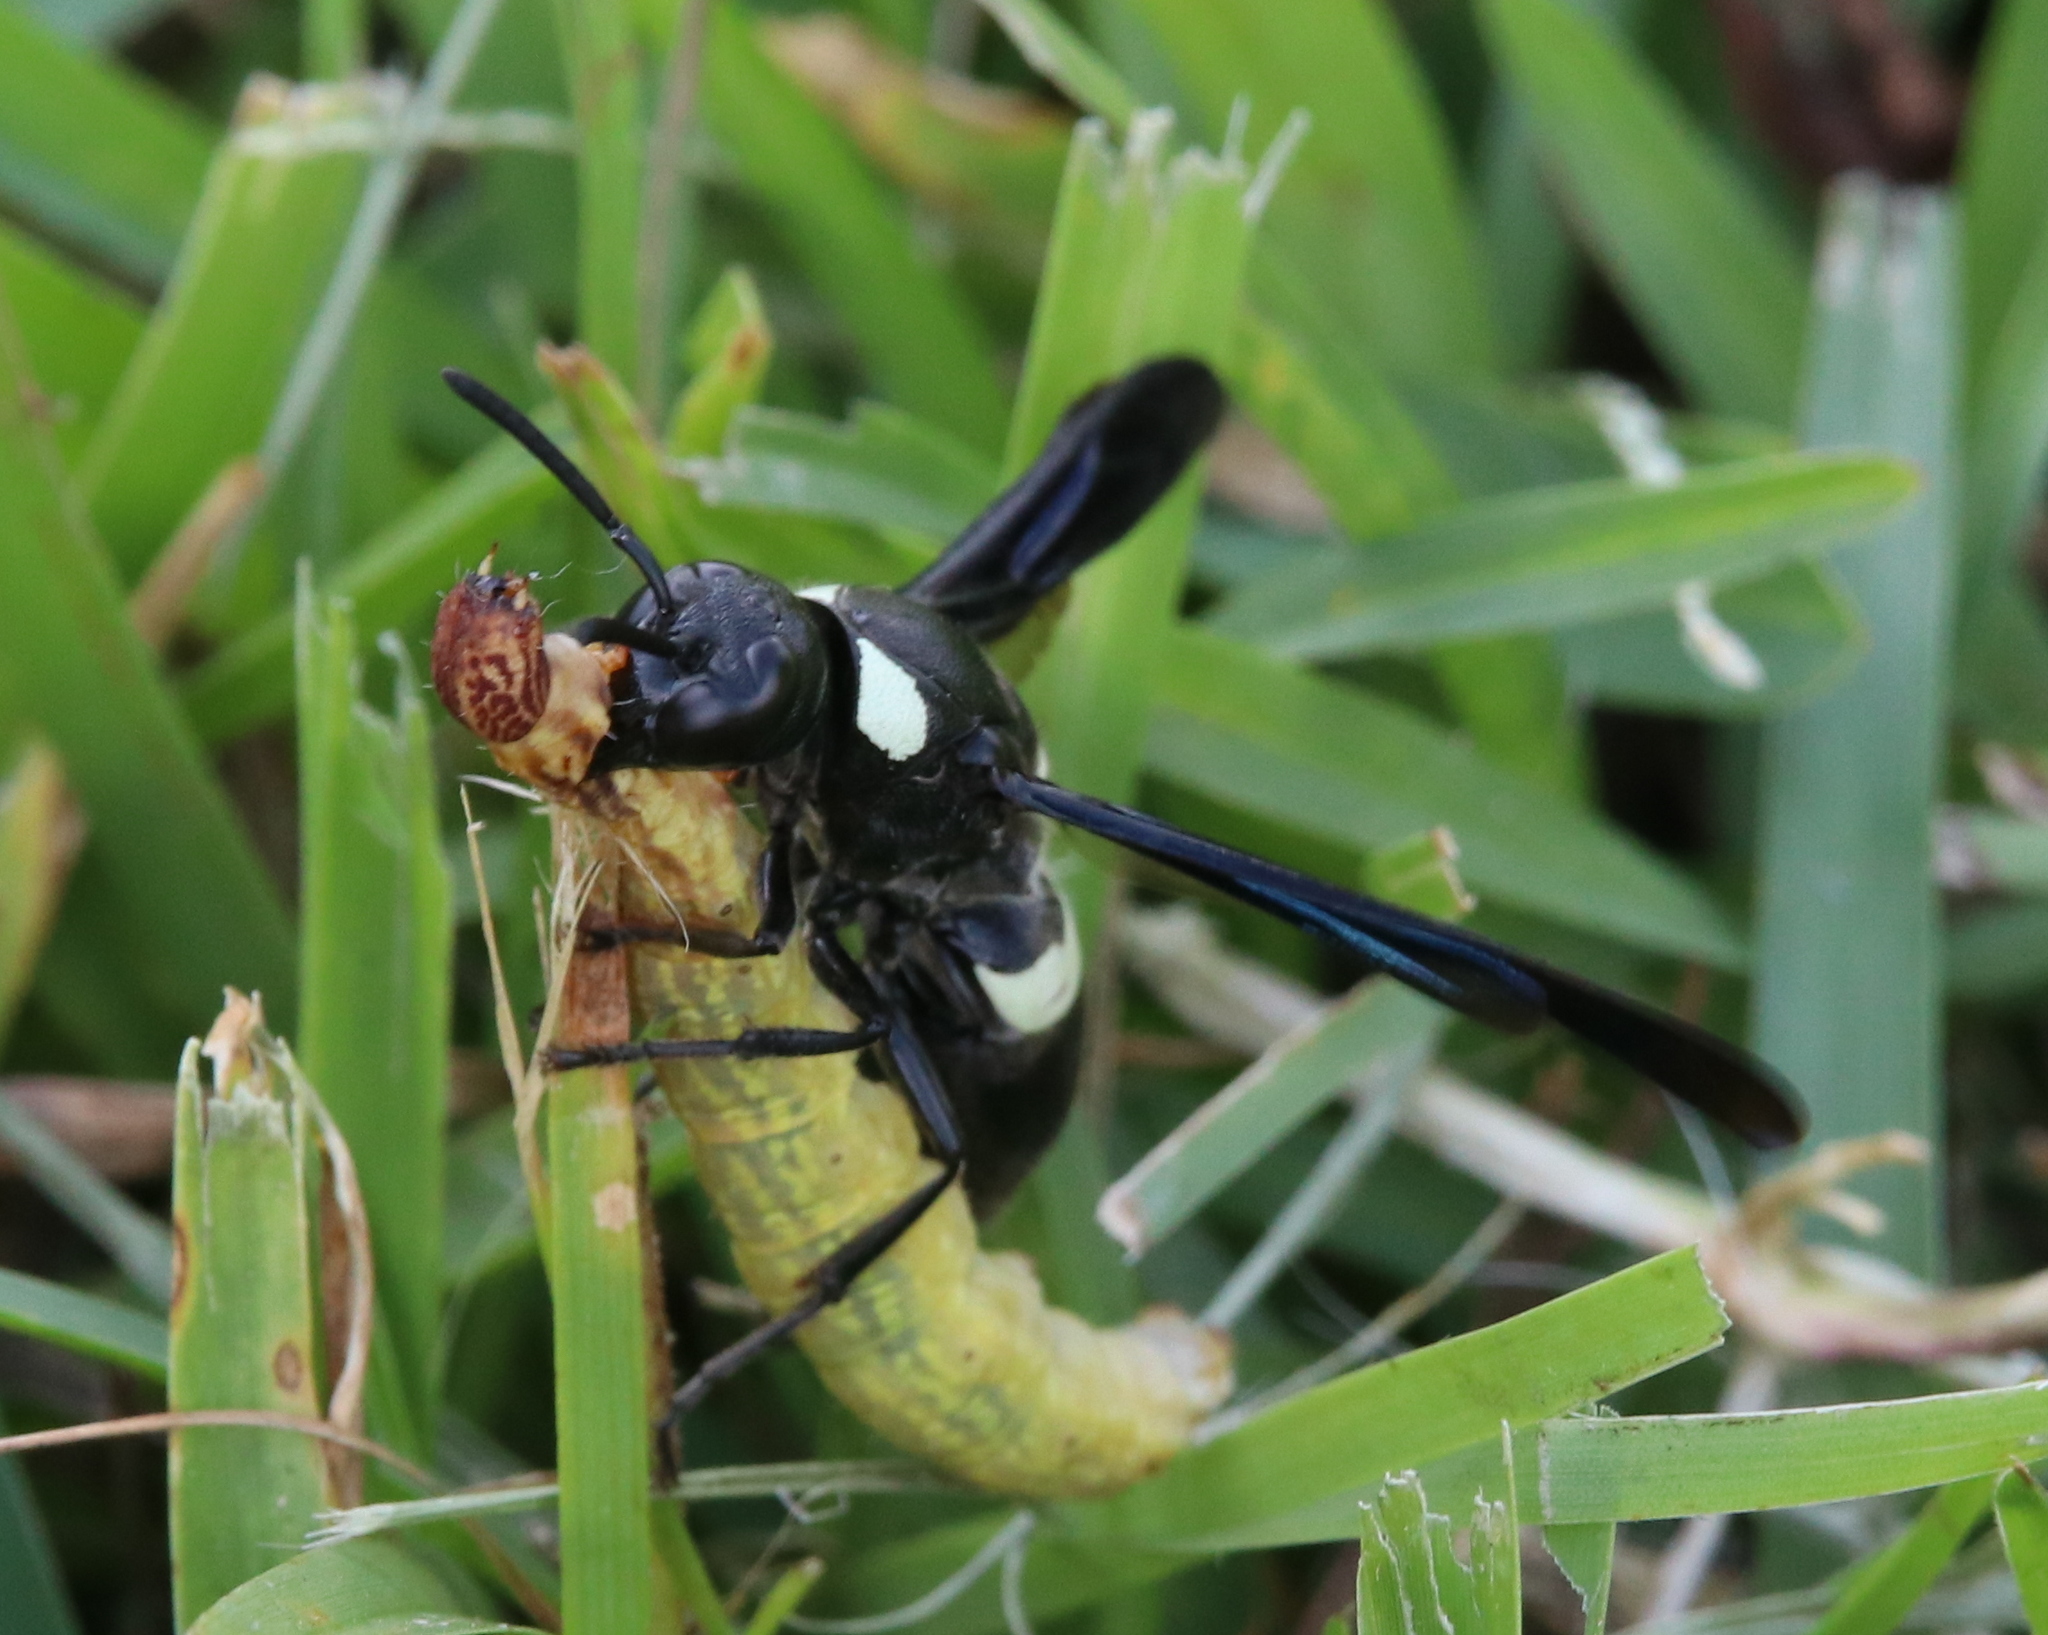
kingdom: Animalia
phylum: Arthropoda
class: Insecta
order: Hymenoptera
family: Eumenidae
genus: Monobia
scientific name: Monobia quadridens
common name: Four-toothed mason wasp
